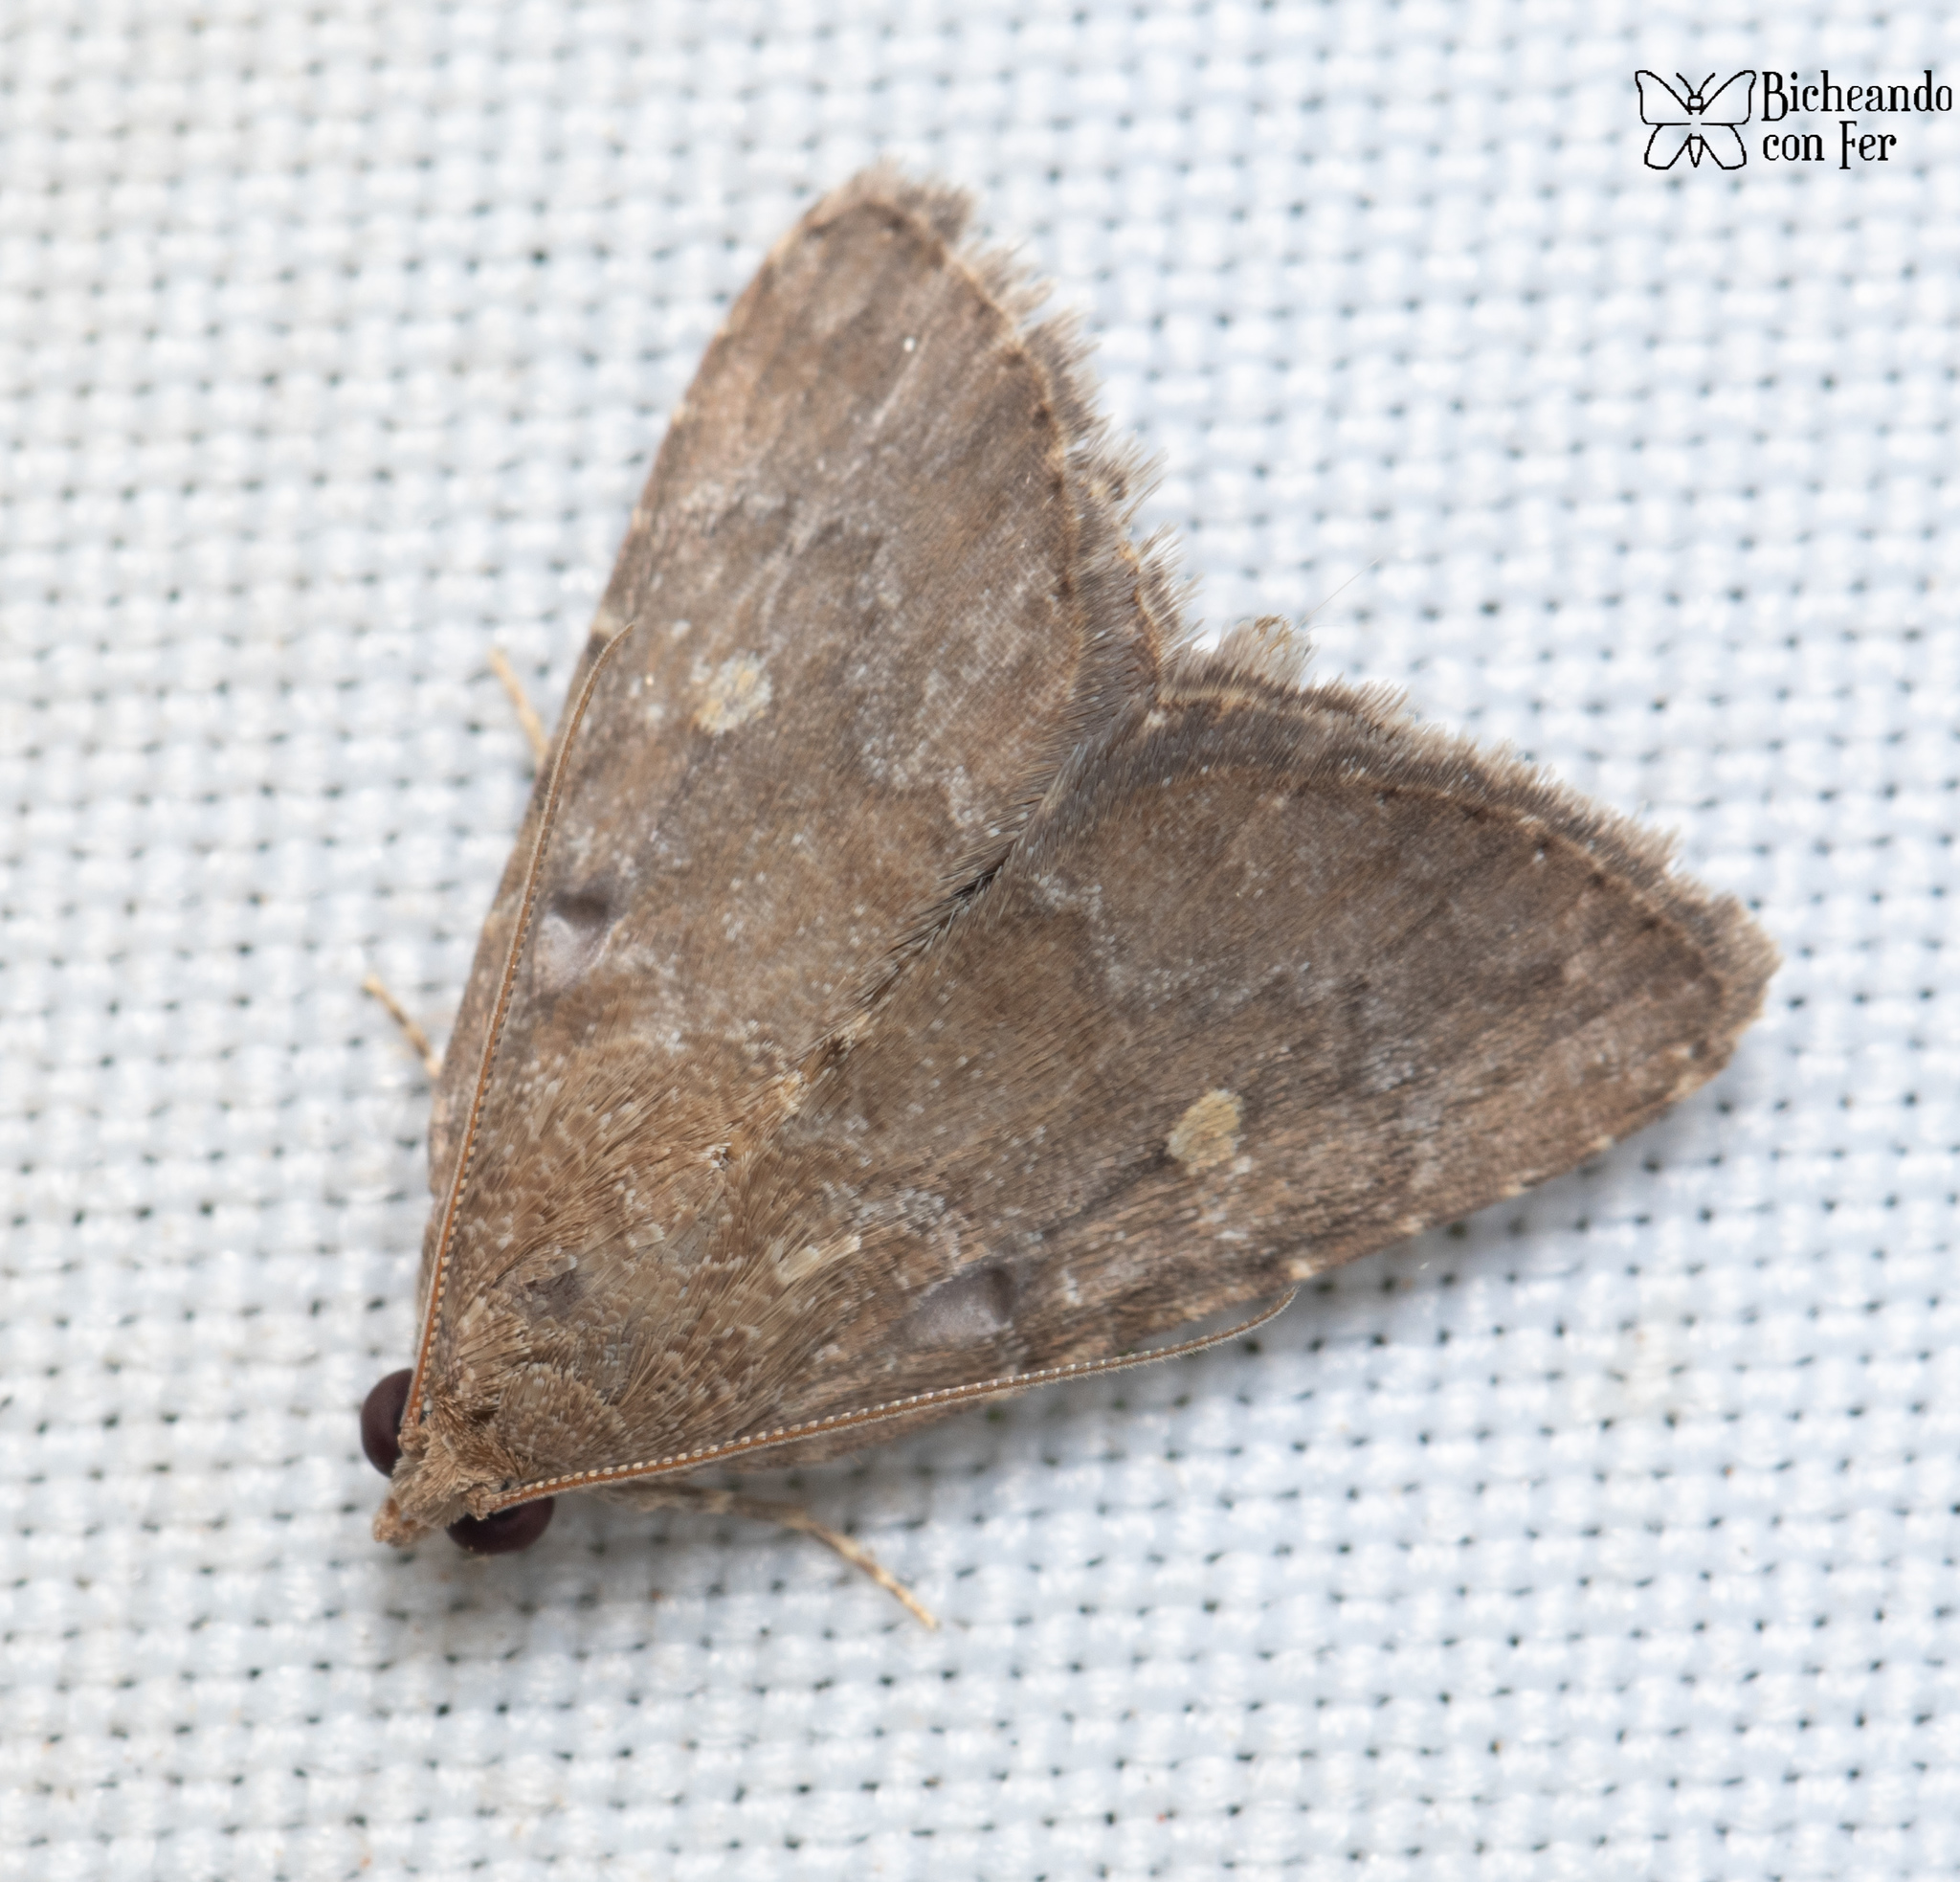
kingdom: Animalia
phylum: Arthropoda
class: Insecta
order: Lepidoptera
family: Noctuidae
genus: Amyna
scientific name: Amyna stricta
